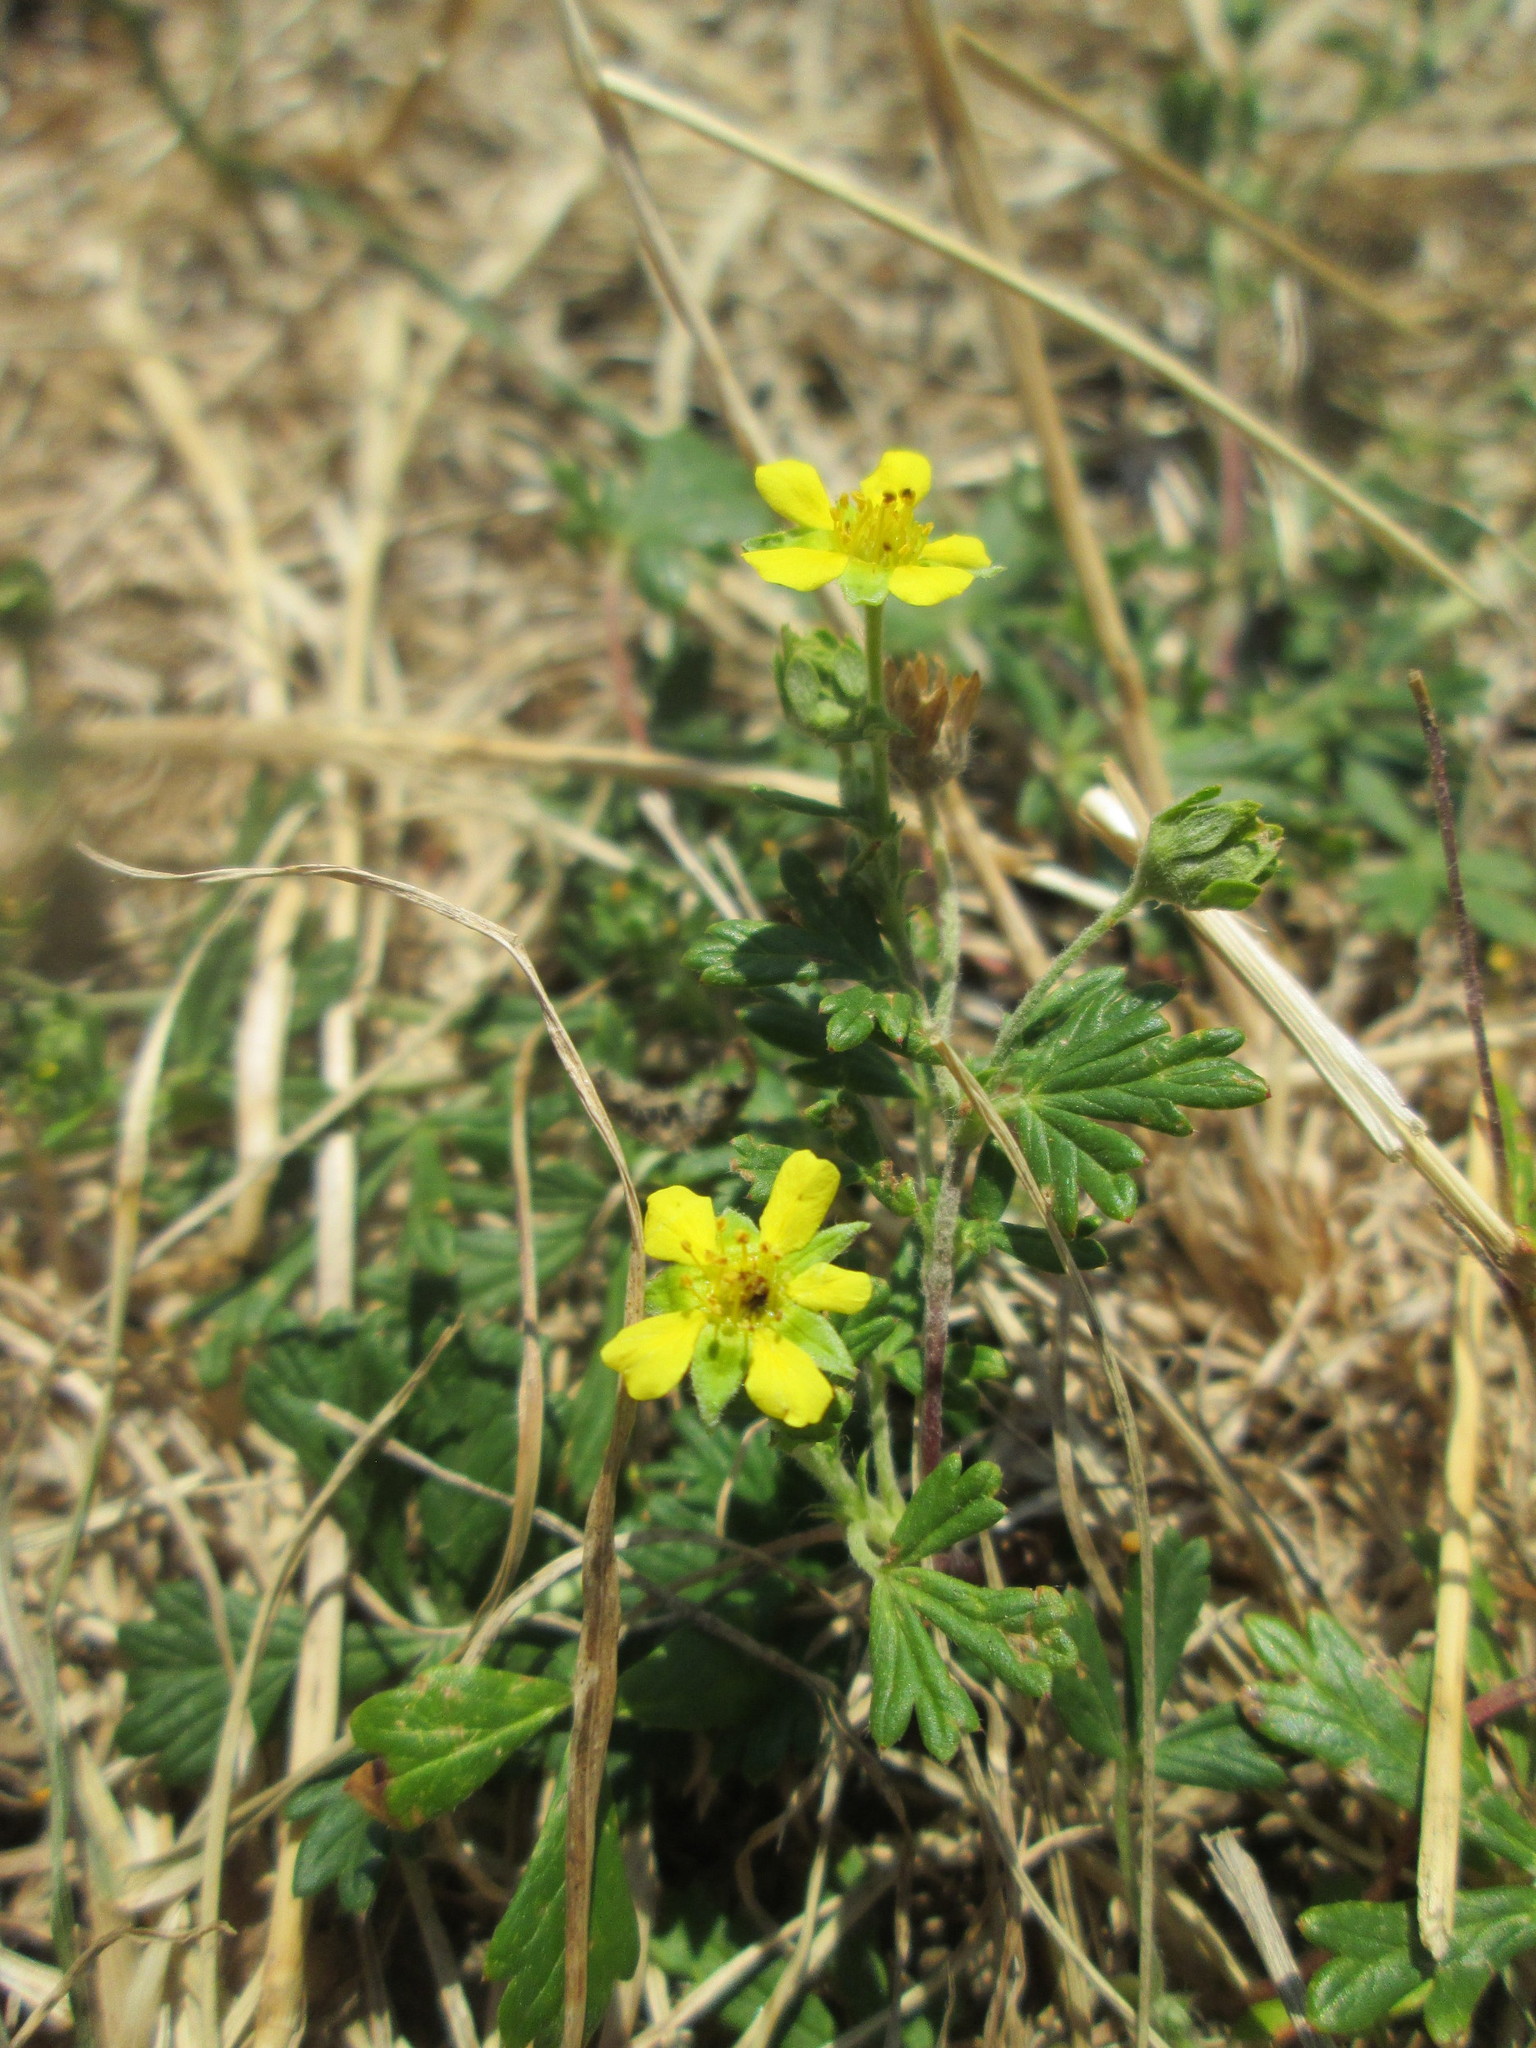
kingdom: Plantae
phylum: Tracheophyta
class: Magnoliopsida
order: Rosales
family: Rosaceae
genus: Potentilla
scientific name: Potentilla argentea
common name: Hoary cinquefoil
